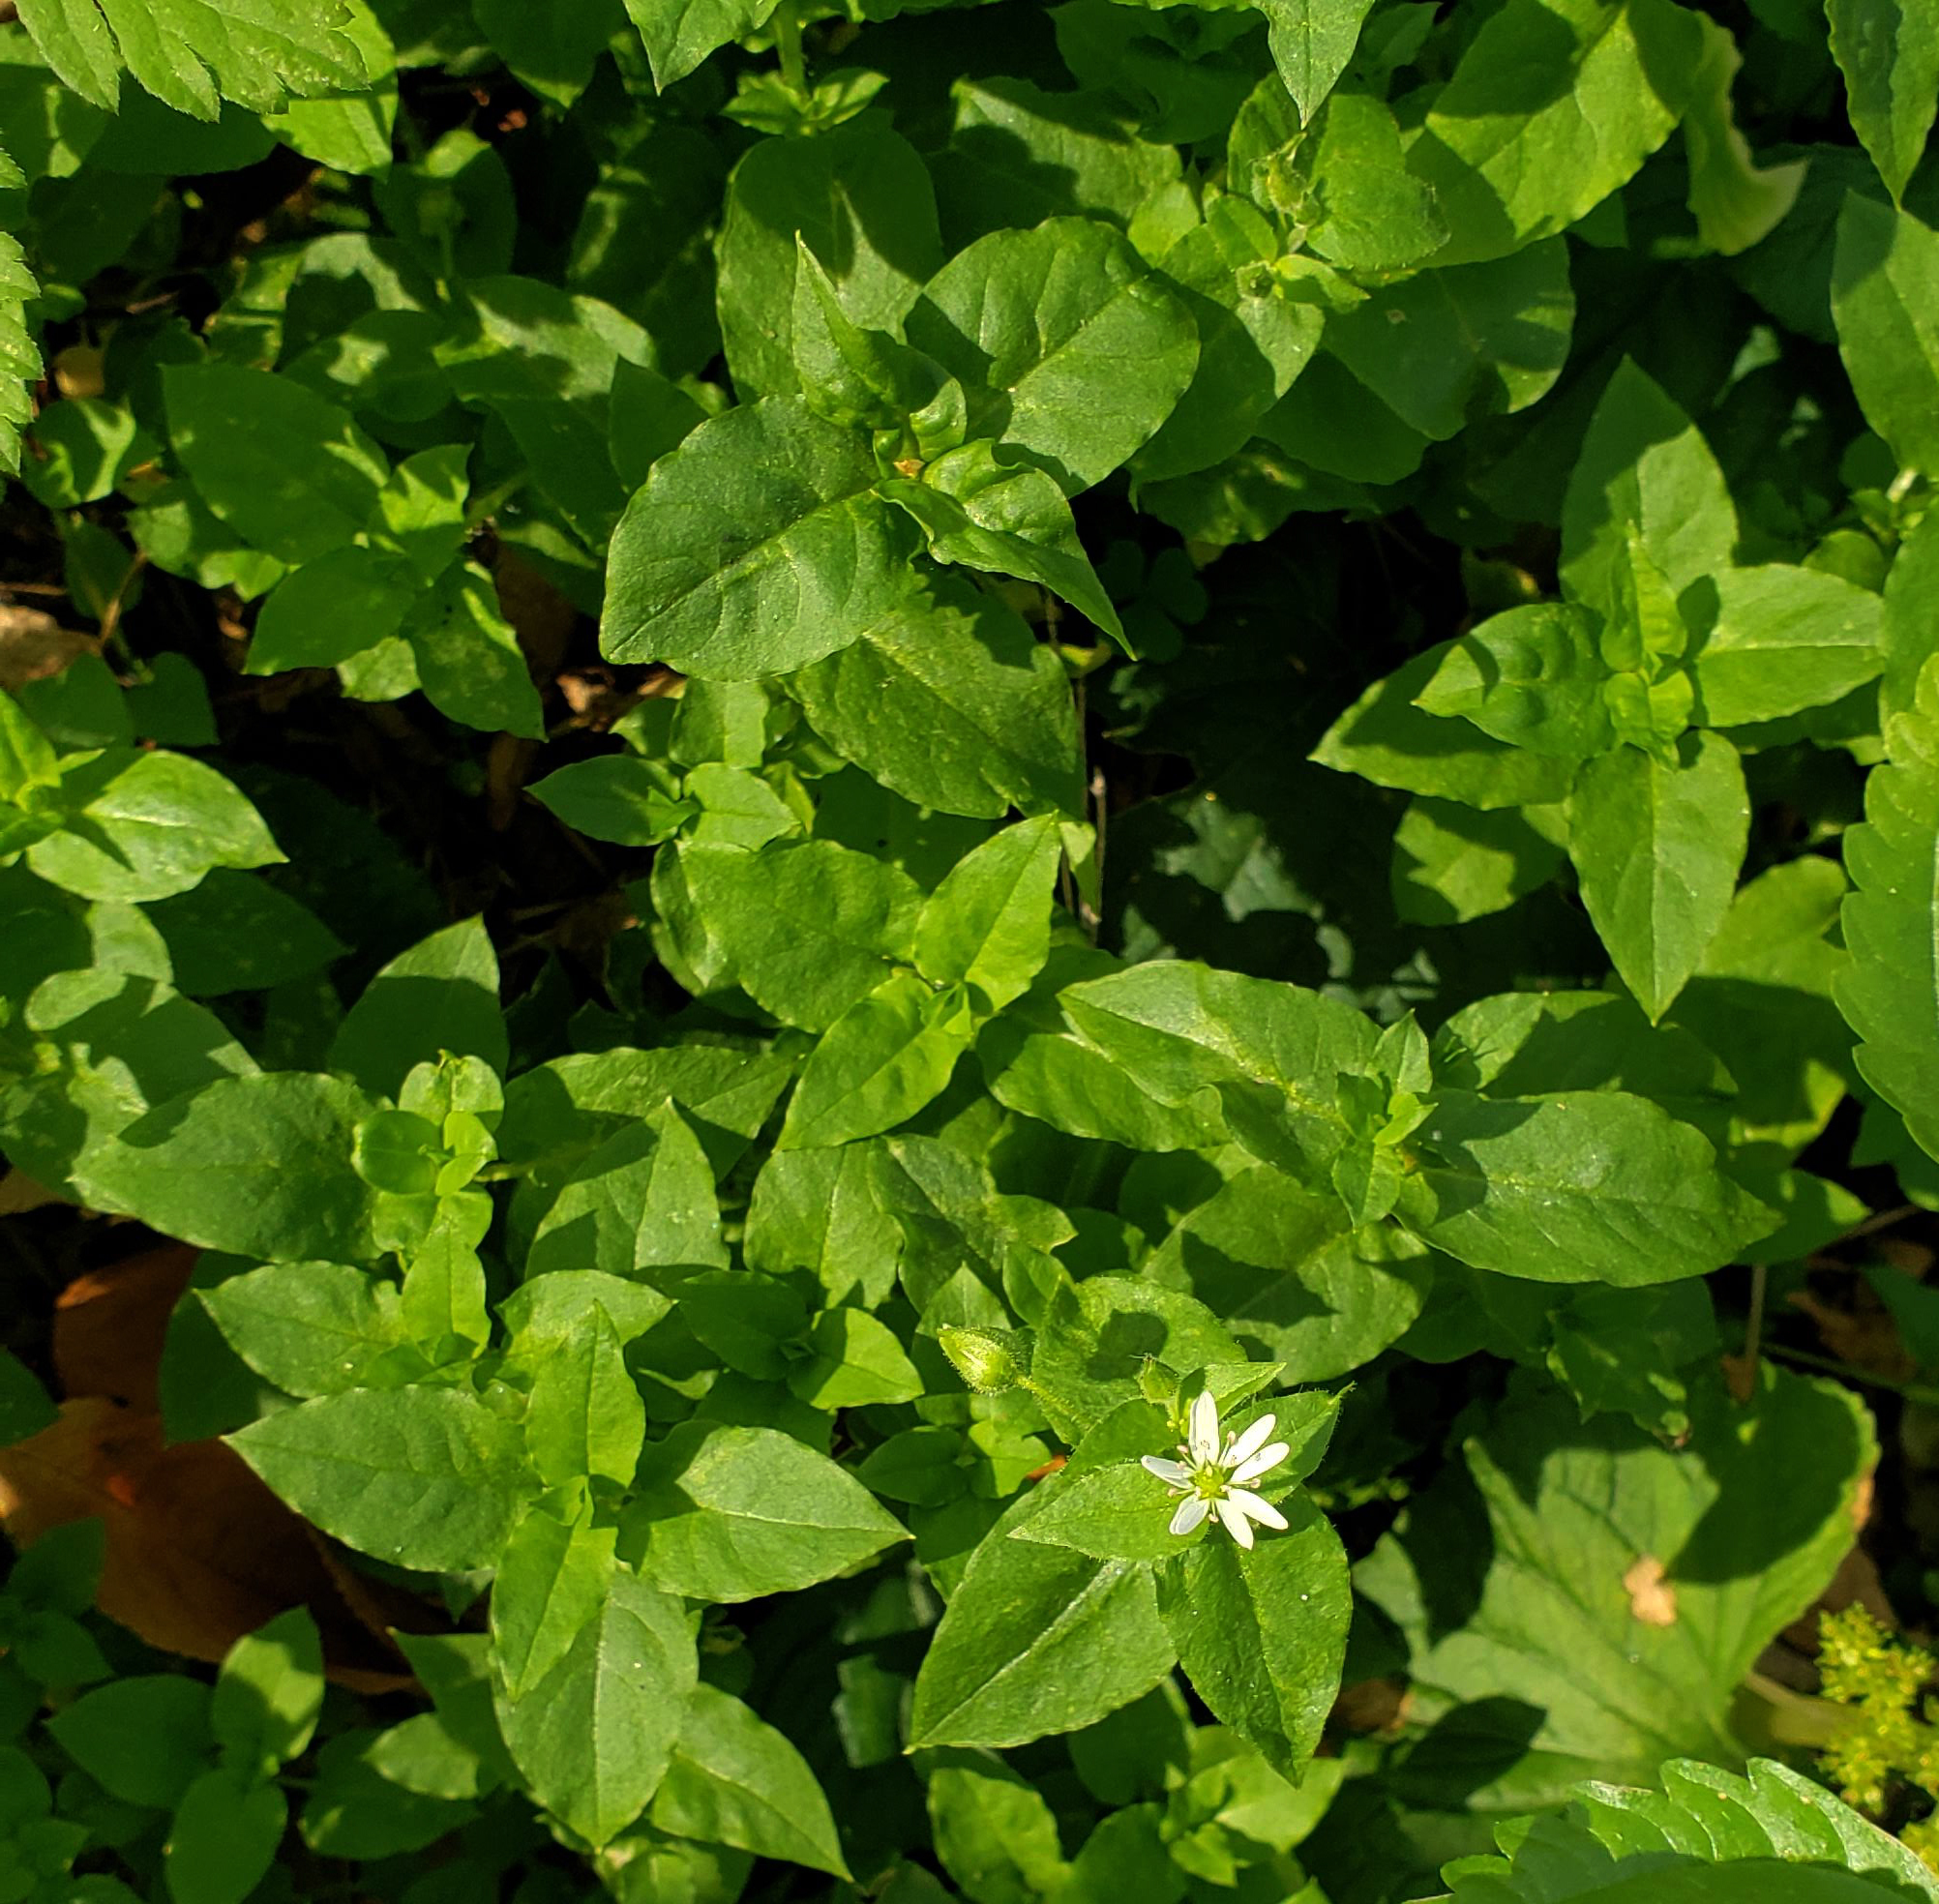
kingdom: Plantae
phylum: Tracheophyta
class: Magnoliopsida
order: Caryophyllales
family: Caryophyllaceae
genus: Stellaria
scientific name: Stellaria aquatica
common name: Water chickweed
